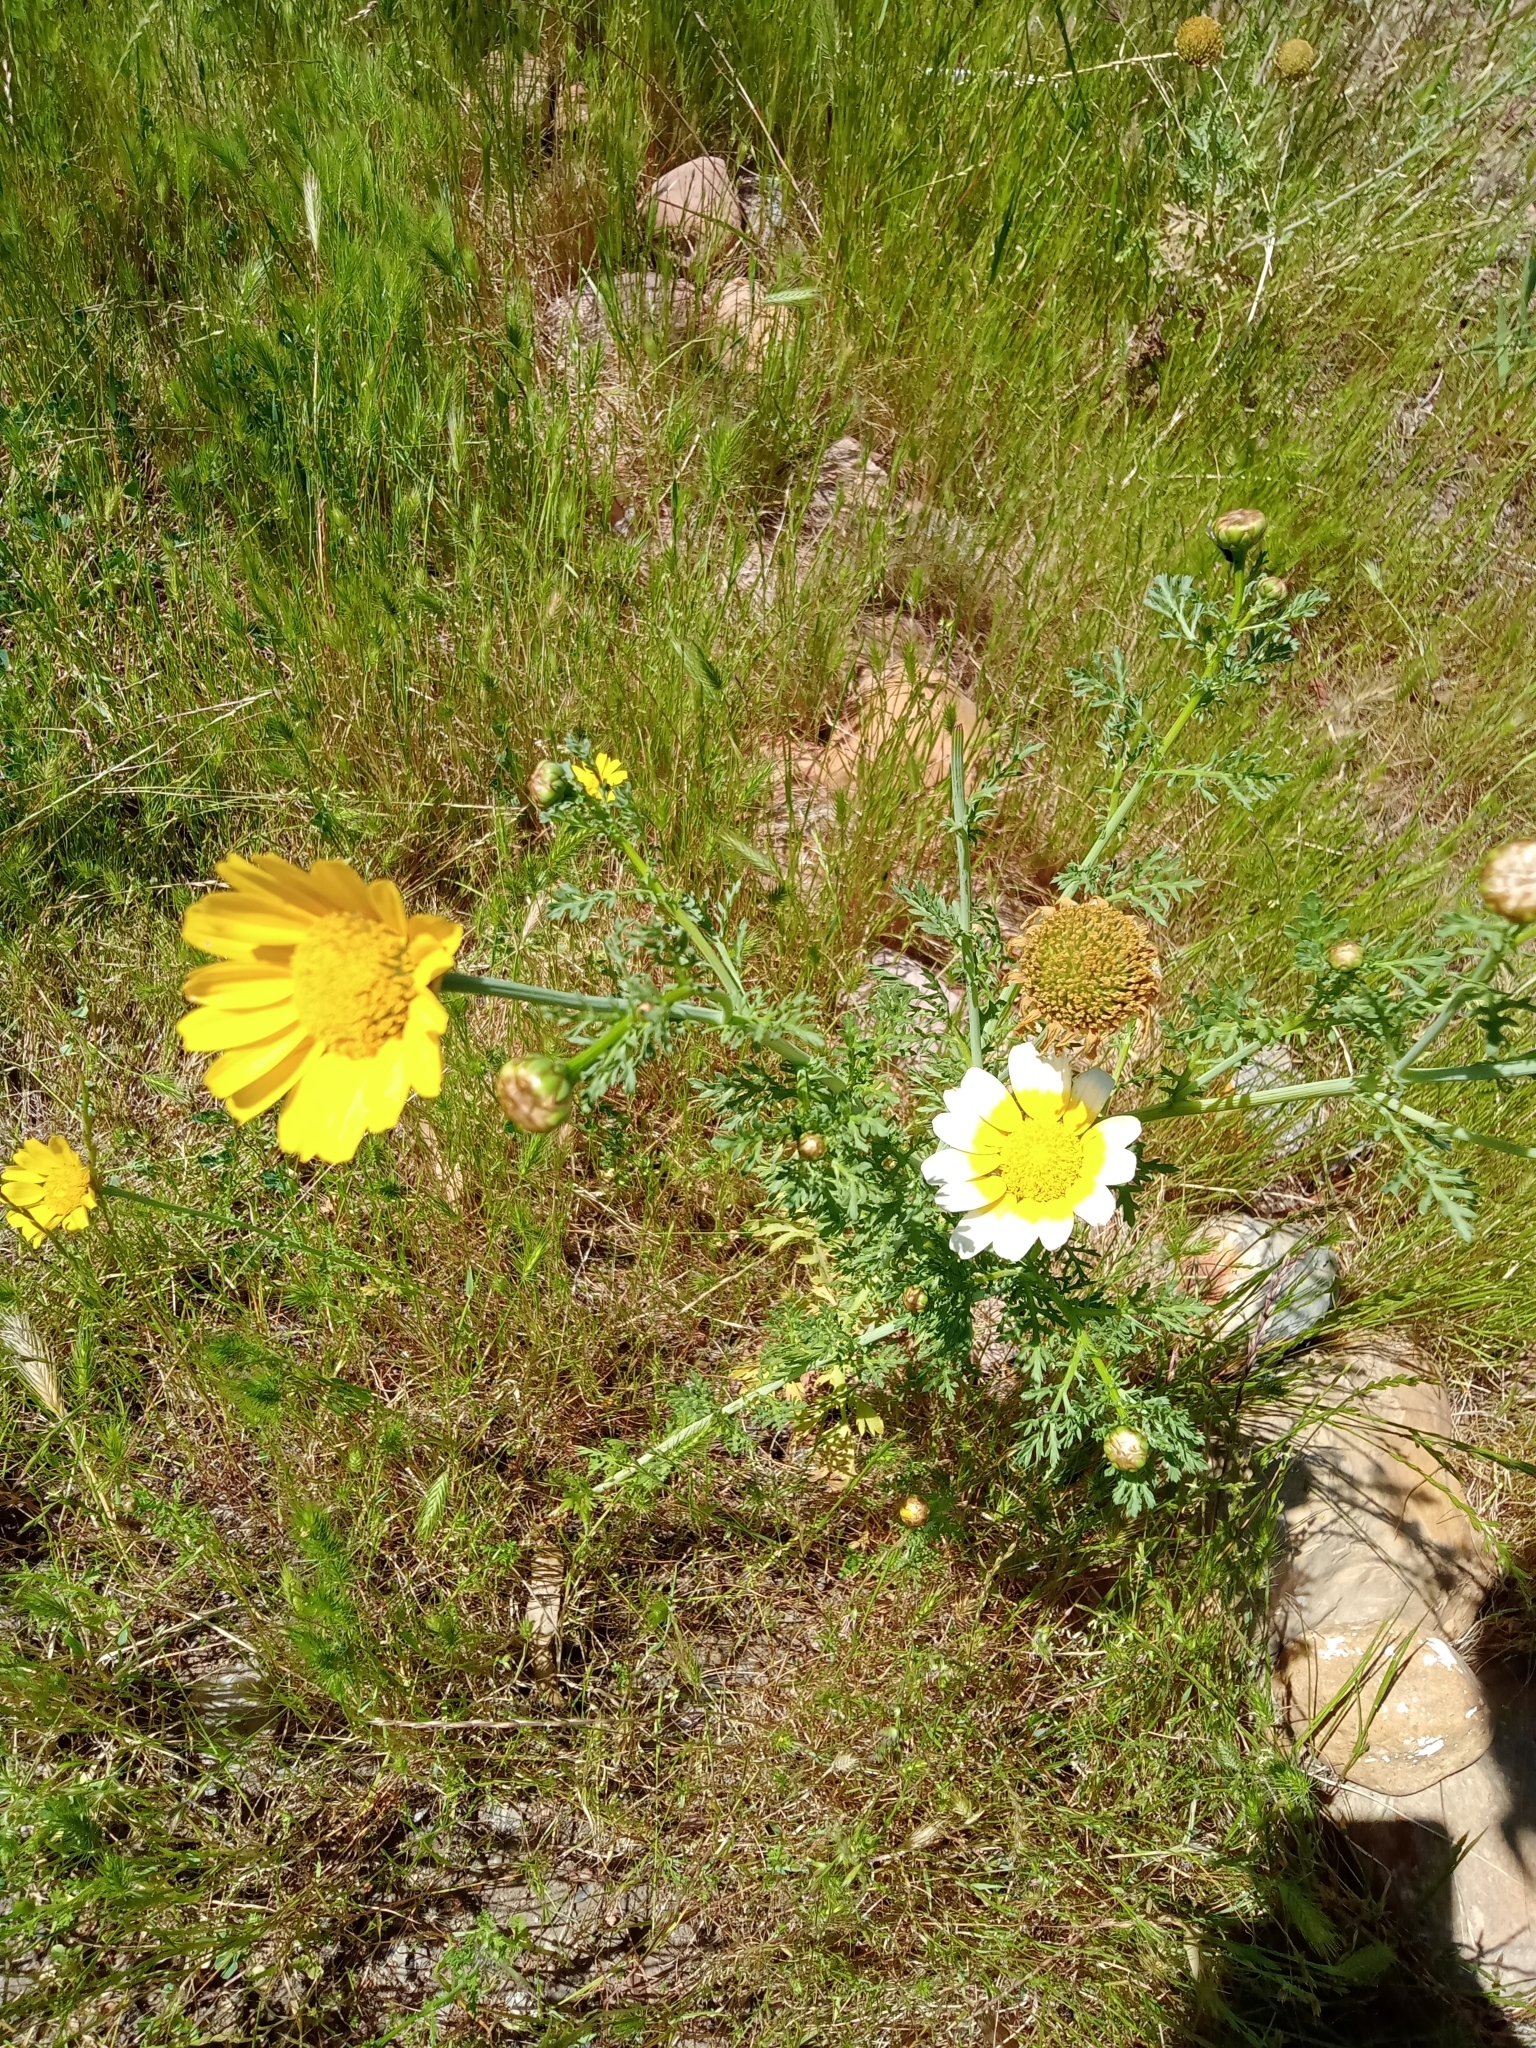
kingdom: Plantae
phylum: Tracheophyta
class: Magnoliopsida
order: Asterales
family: Asteraceae
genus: Glebionis
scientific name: Glebionis coronaria
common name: Crowndaisy
